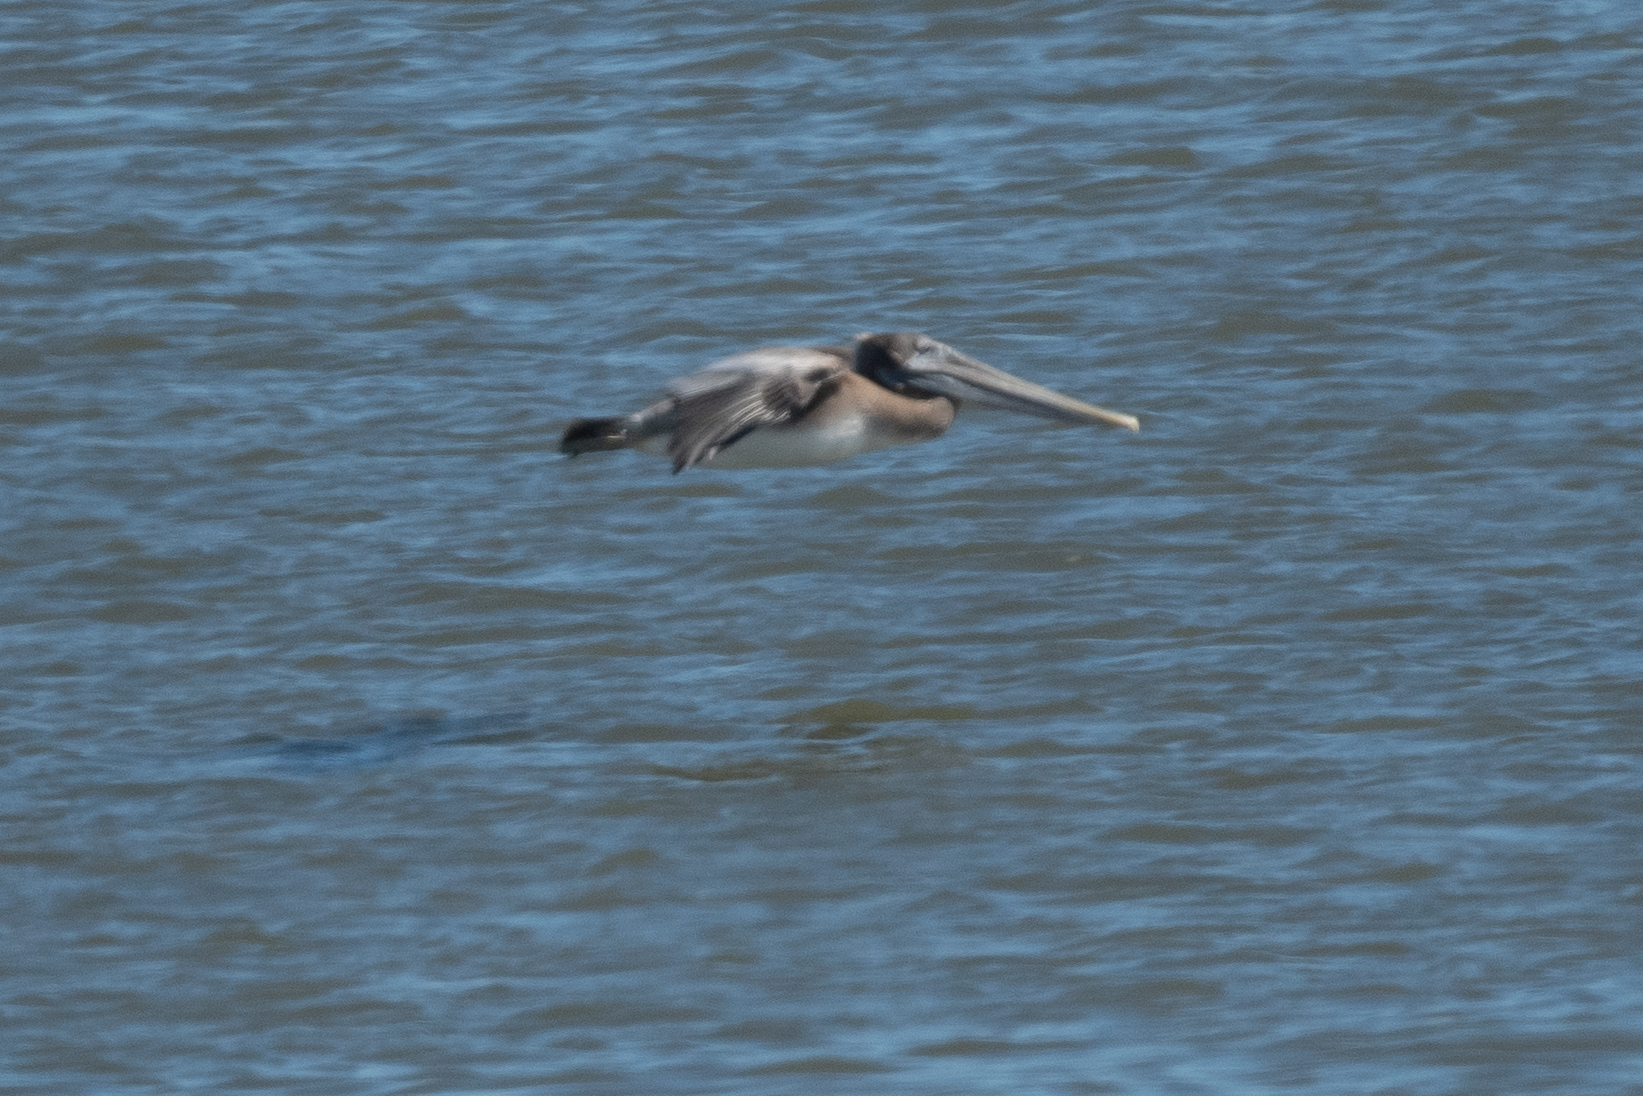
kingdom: Animalia
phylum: Chordata
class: Aves
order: Pelecaniformes
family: Pelecanidae
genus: Pelecanus
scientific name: Pelecanus occidentalis
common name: Brown pelican
